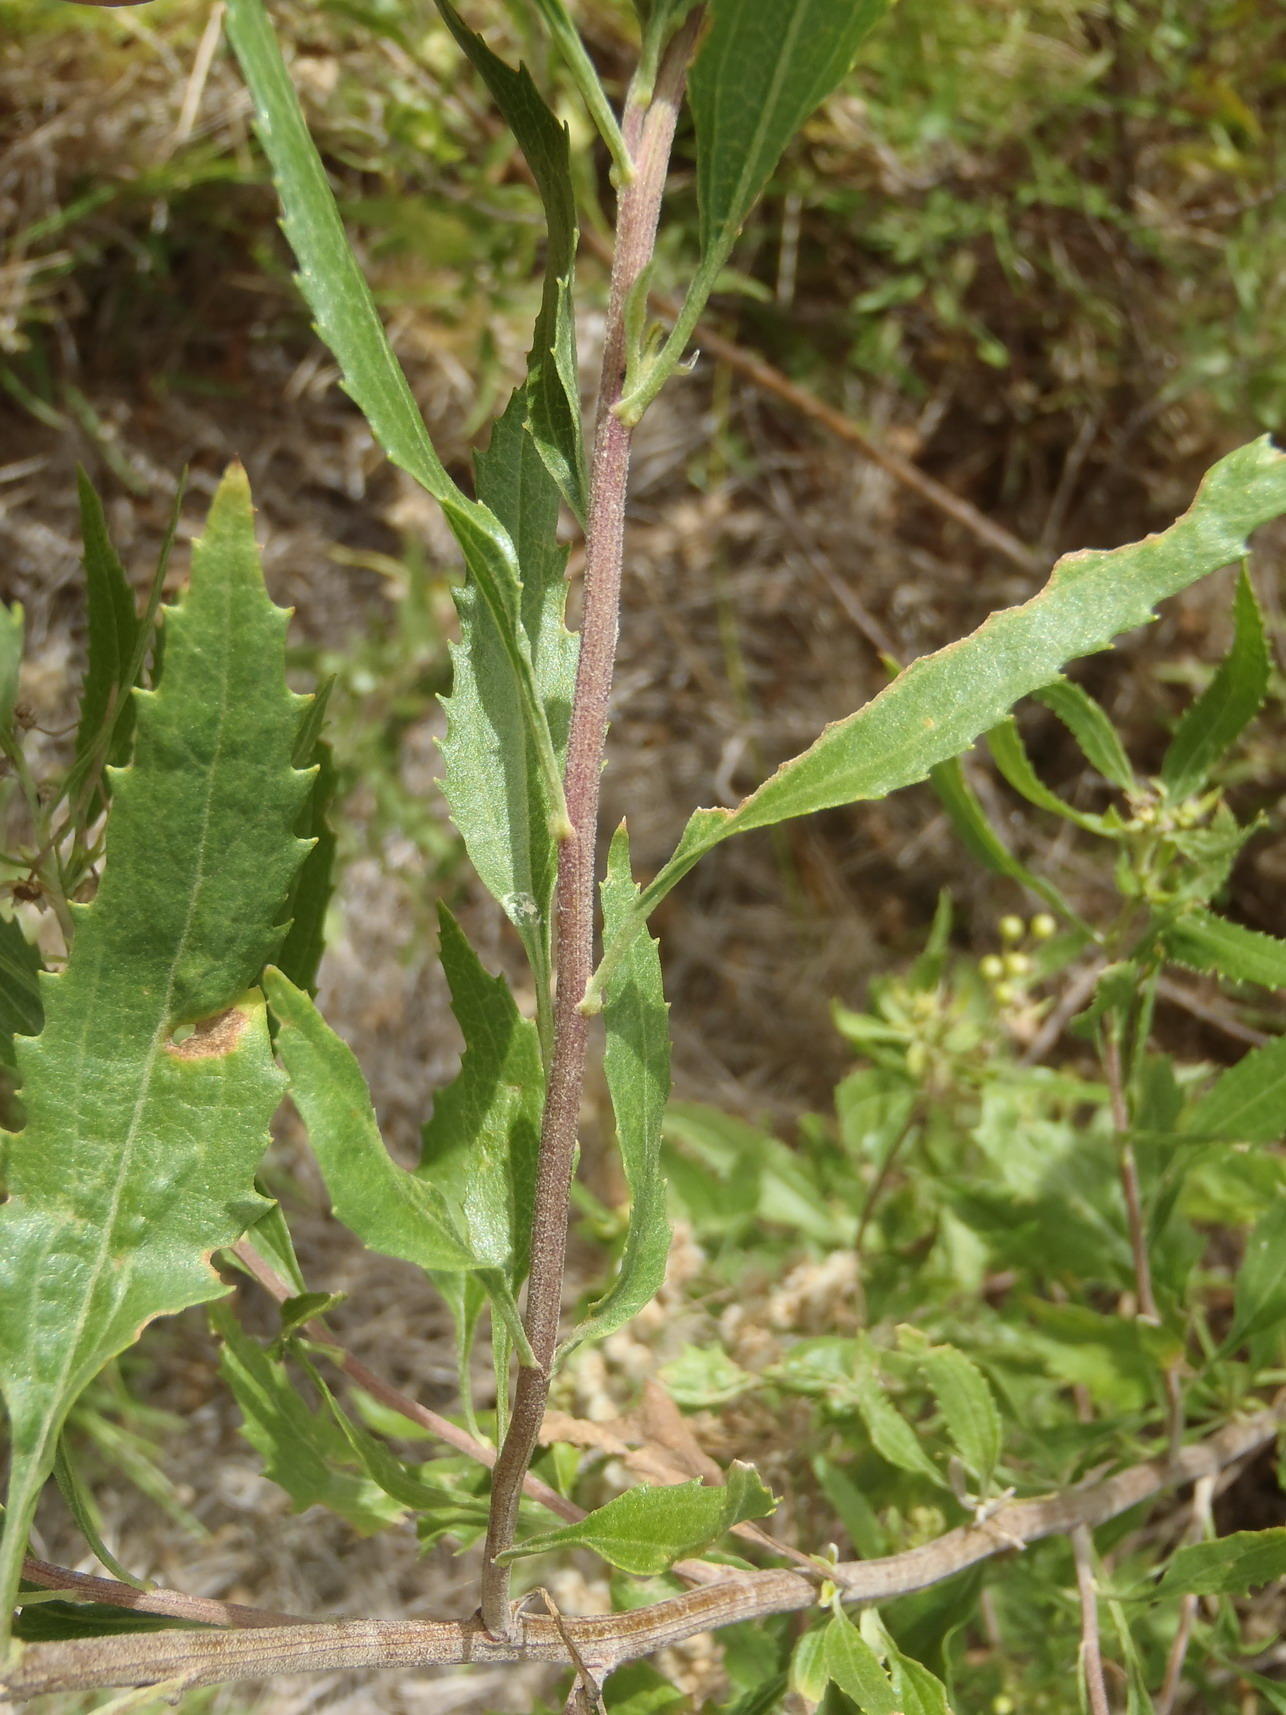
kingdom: Plantae
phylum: Tracheophyta
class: Magnoliopsida
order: Asterales
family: Asteraceae
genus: Nidorella
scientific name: Nidorella ivifolia
